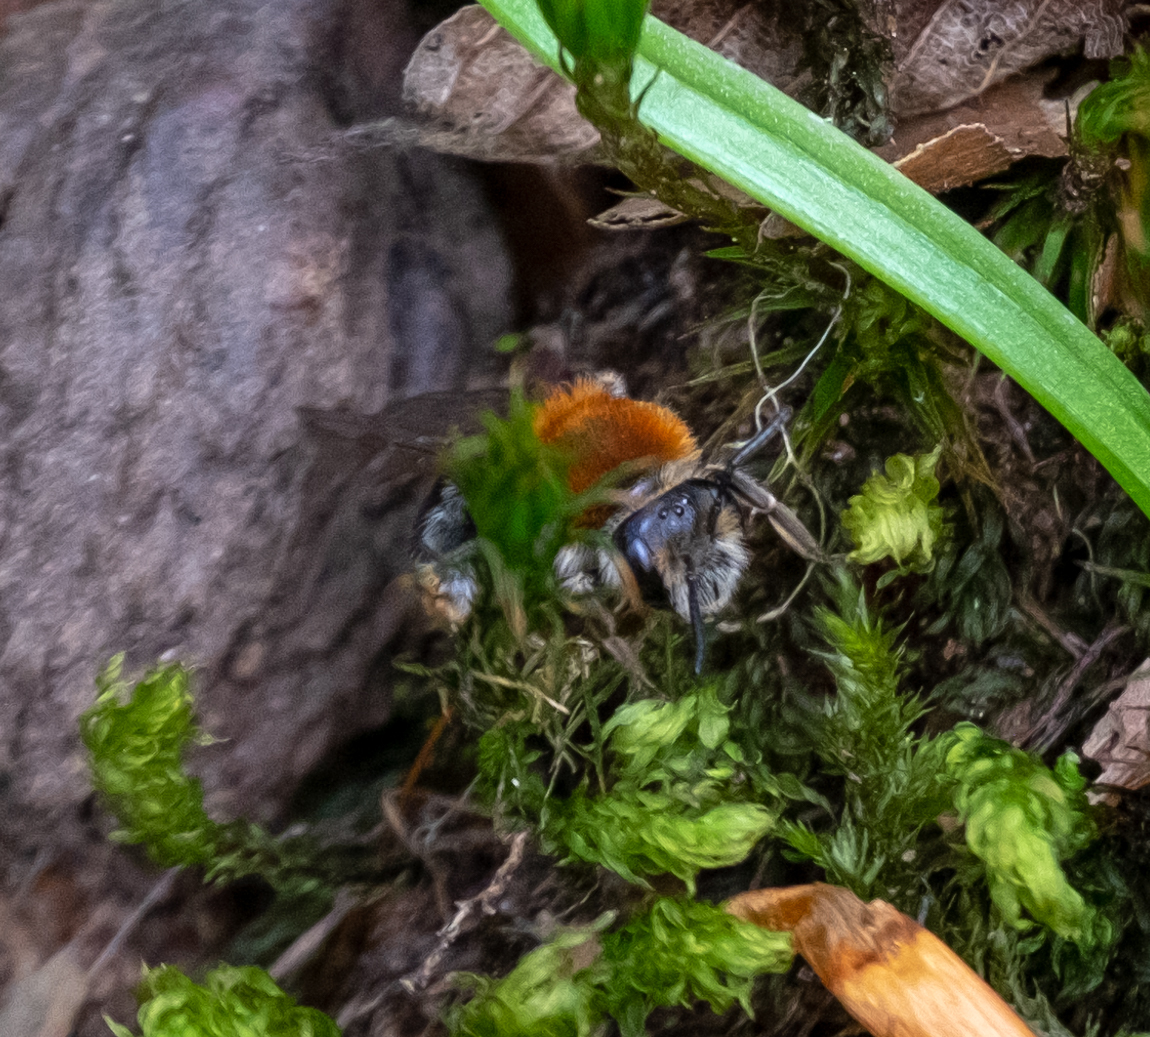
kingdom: Animalia
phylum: Arthropoda
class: Insecta
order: Hymenoptera
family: Andrenidae
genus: Andrena
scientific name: Andrena haemorrhoa
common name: Early mining bee
